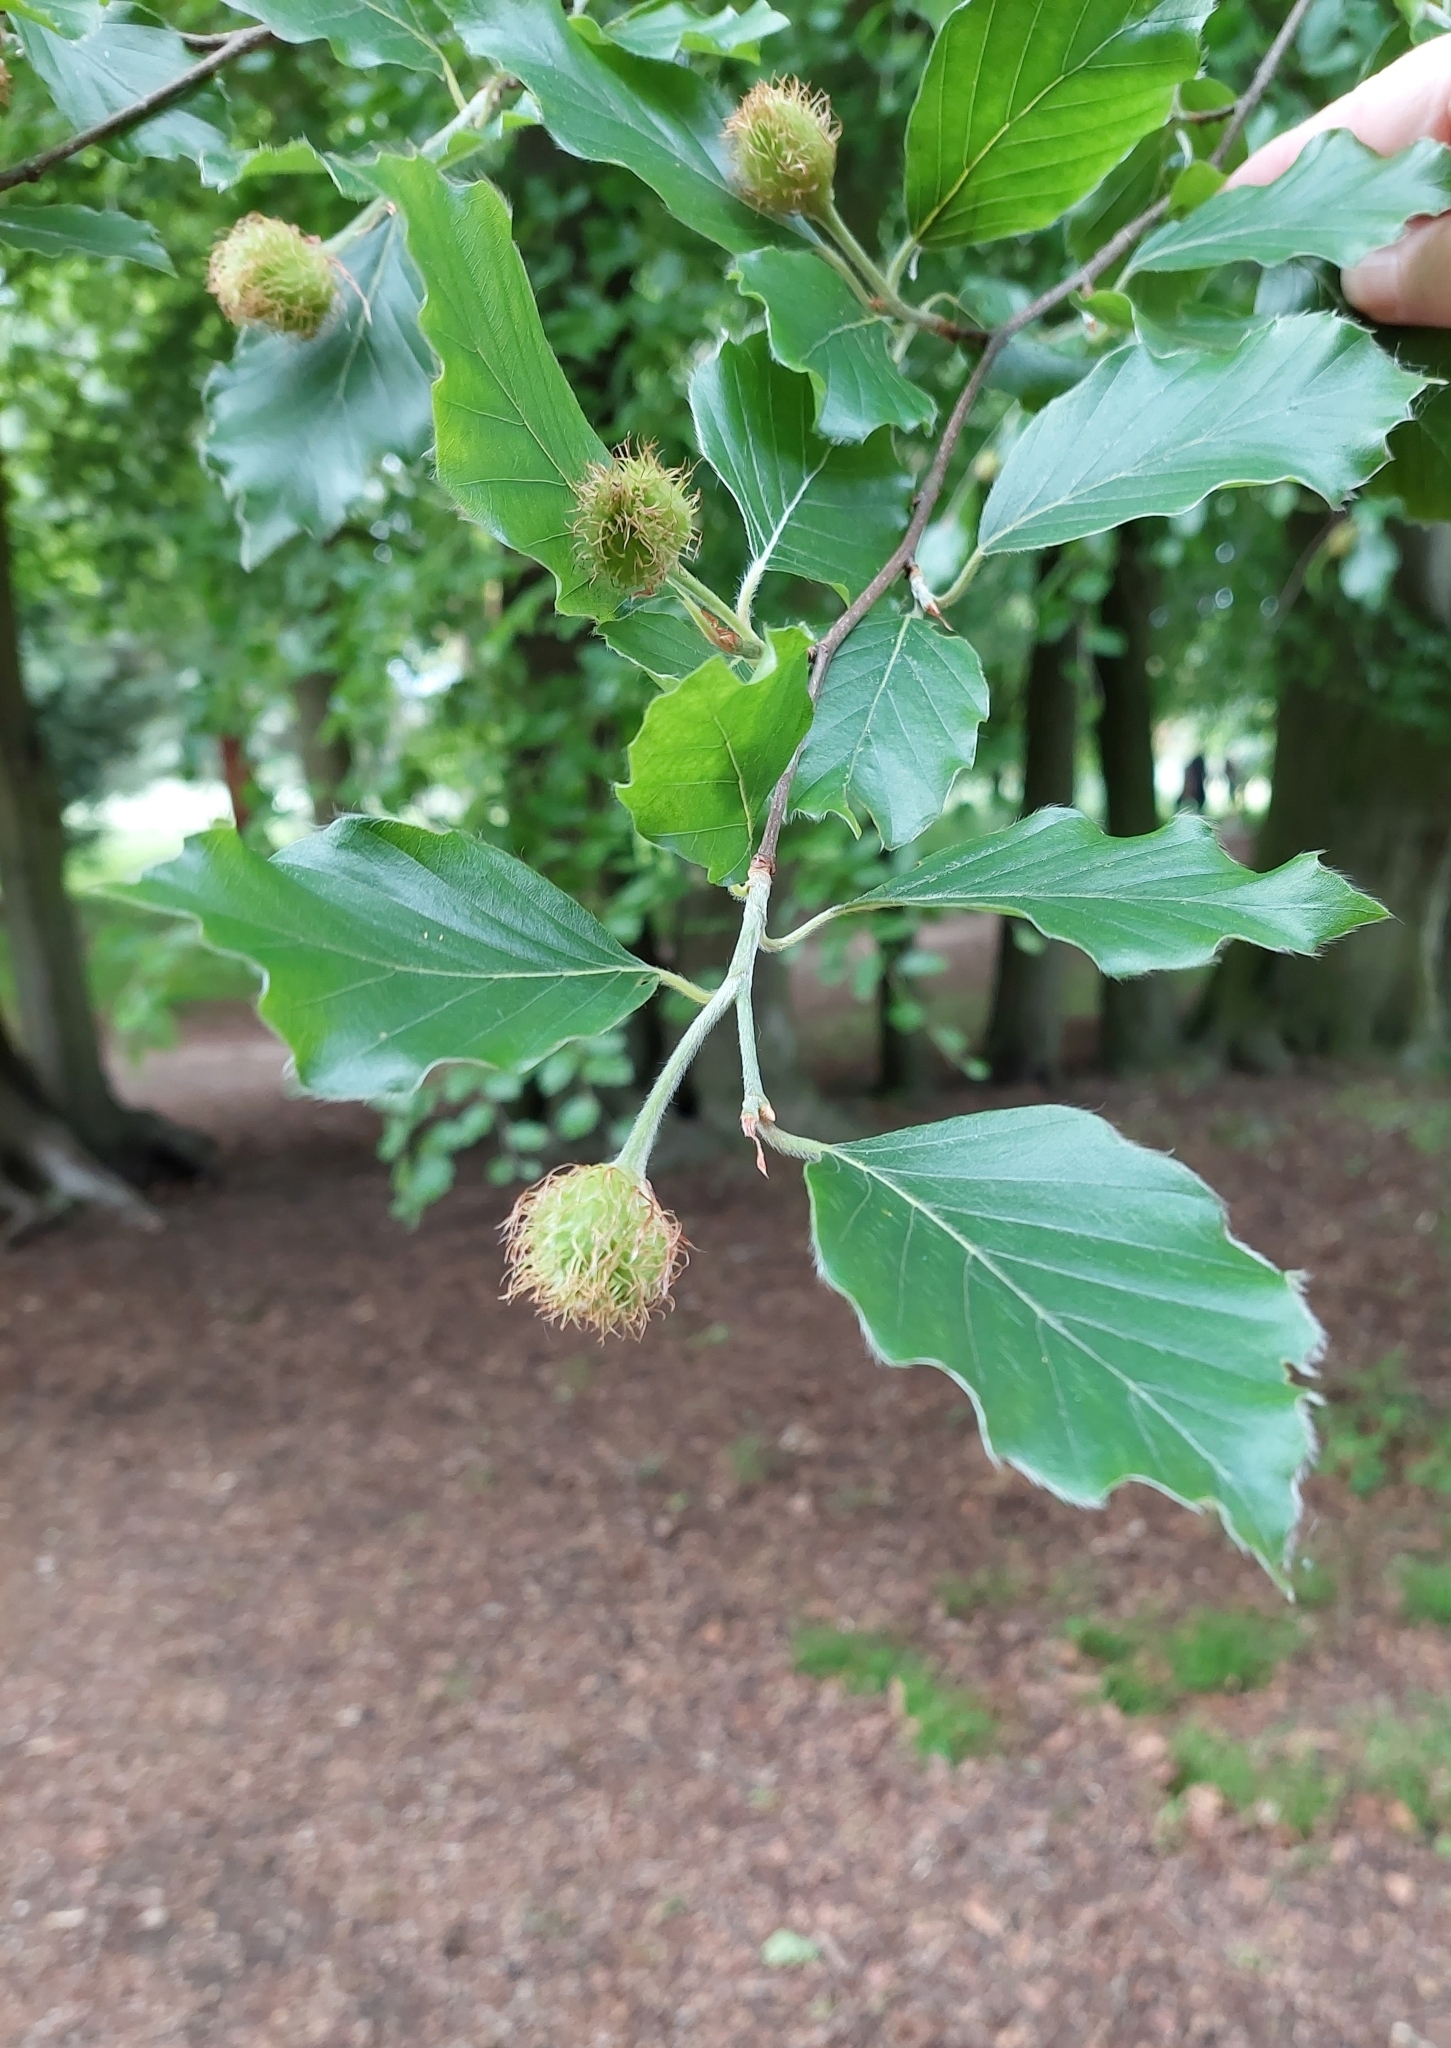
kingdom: Plantae
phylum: Tracheophyta
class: Magnoliopsida
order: Fagales
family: Fagaceae
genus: Fagus
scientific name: Fagus sylvatica
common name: Beech
